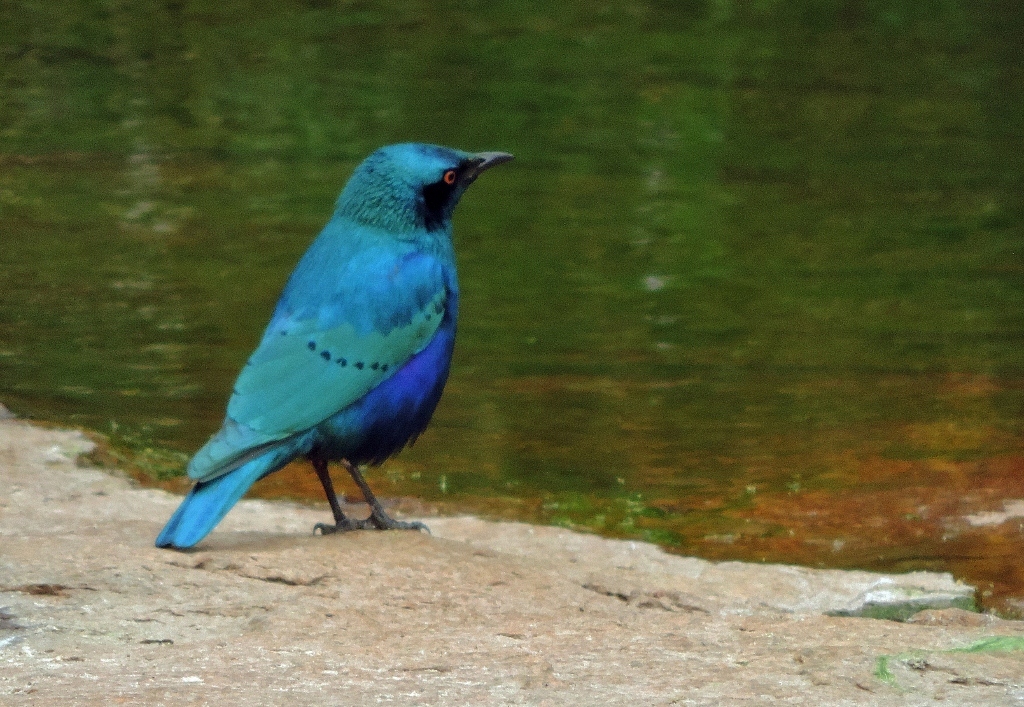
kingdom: Animalia
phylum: Chordata
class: Aves
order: Passeriformes
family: Sturnidae
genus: Lamprotornis
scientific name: Lamprotornis chloropterus
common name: Lesser blue-eared starling
